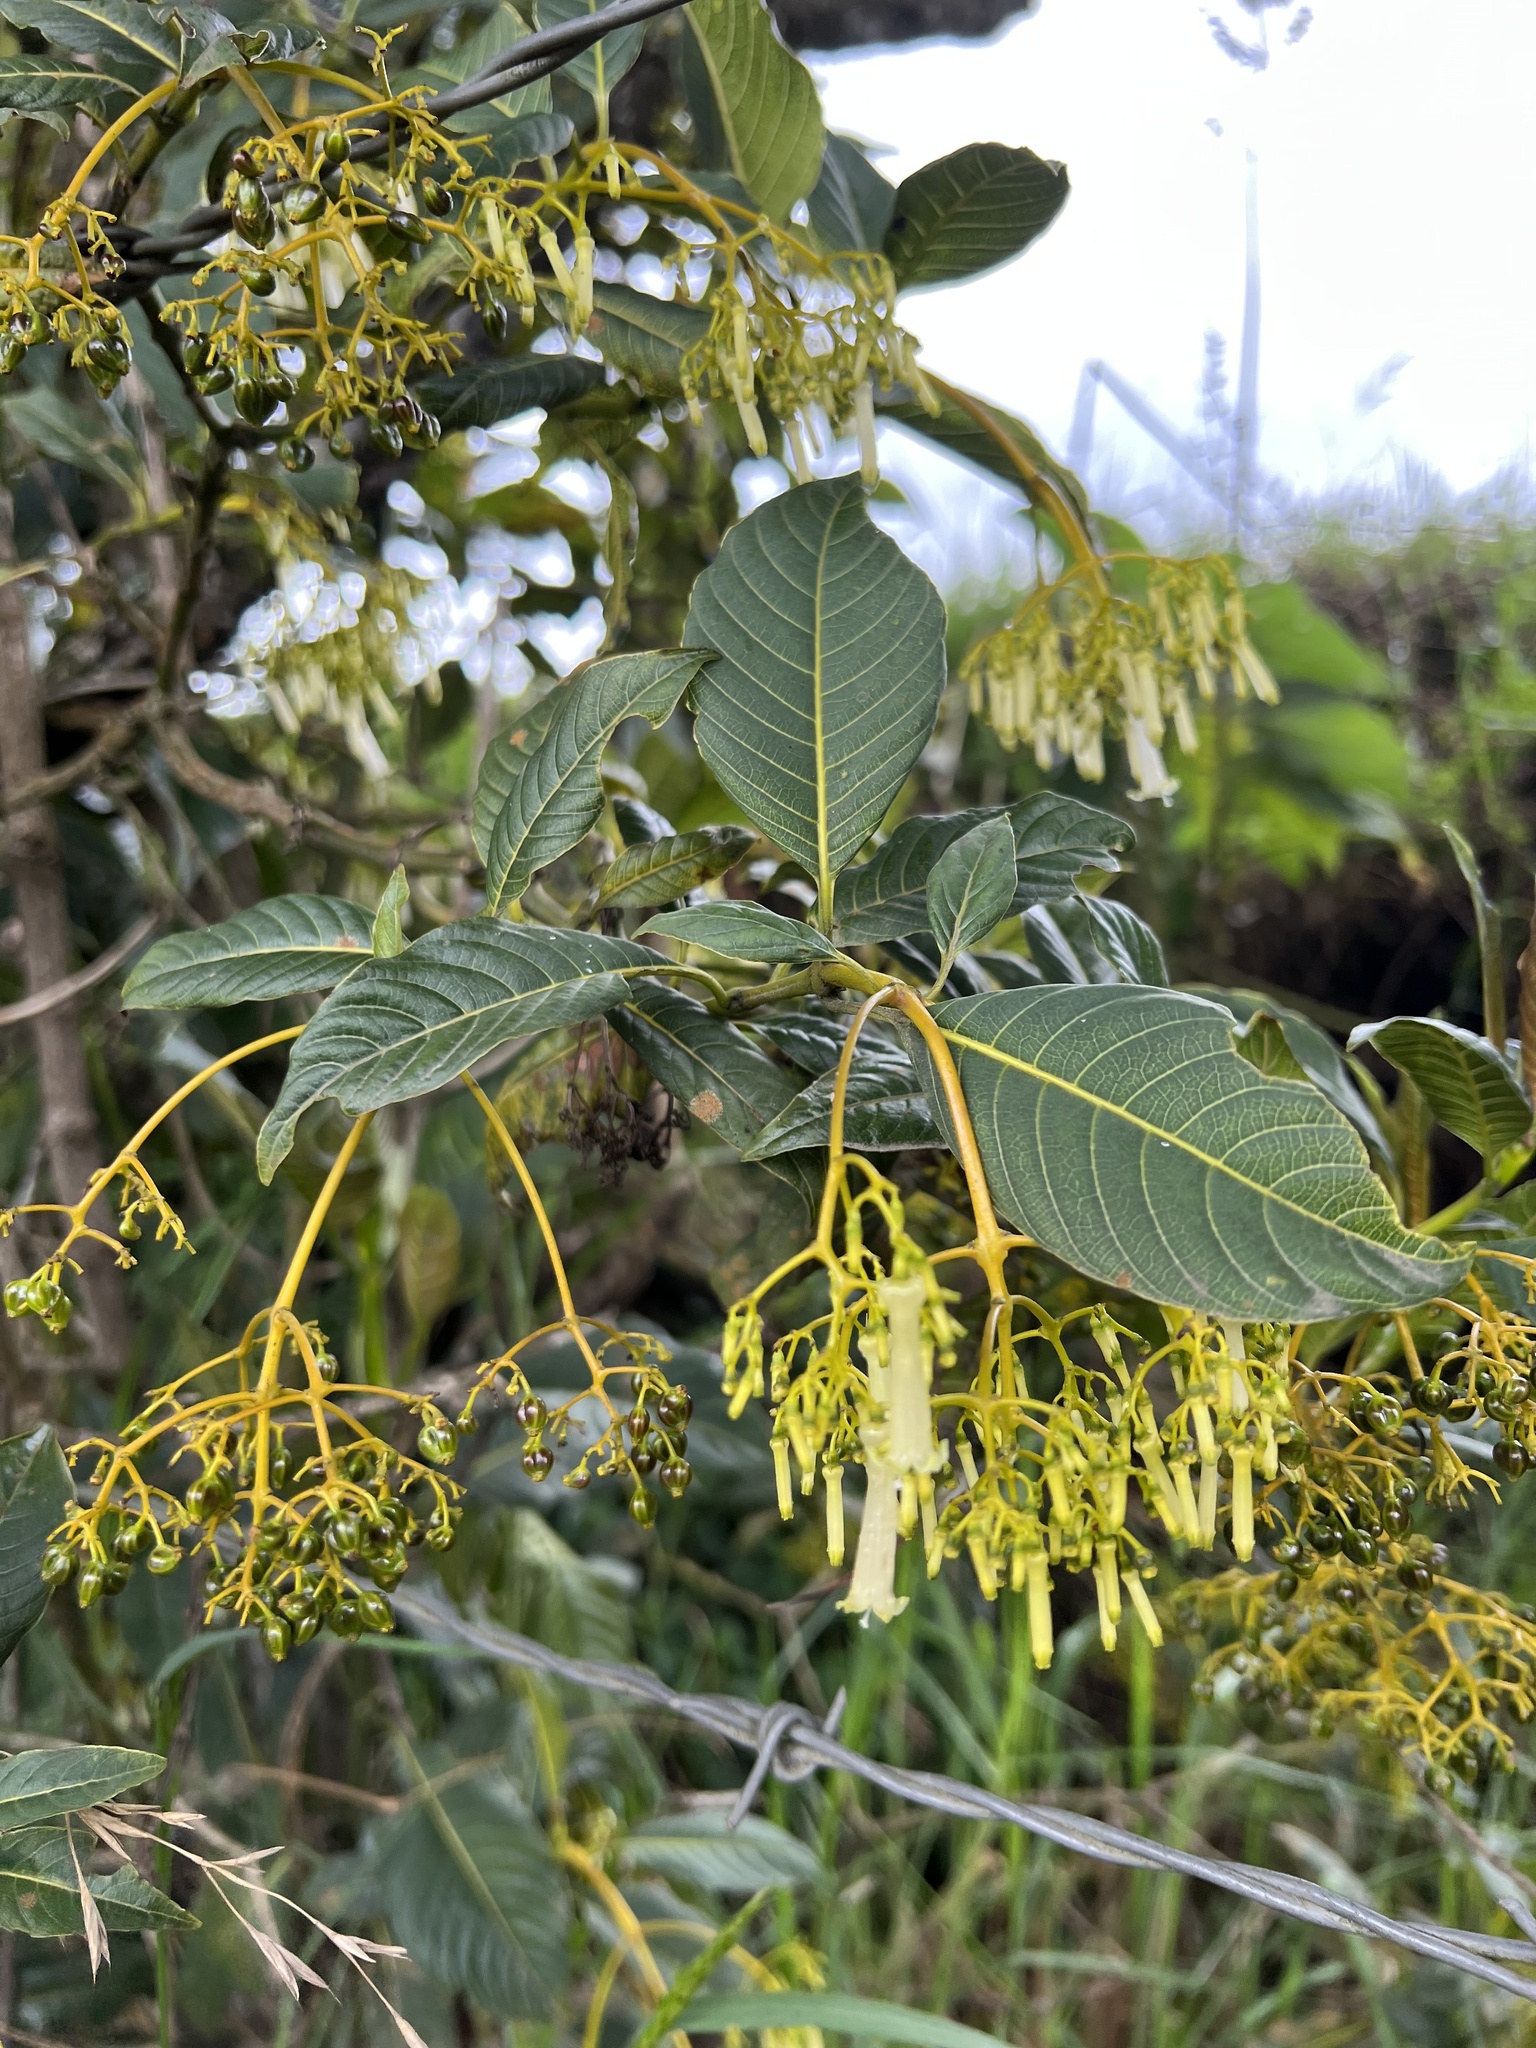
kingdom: Plantae
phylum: Tracheophyta
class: Magnoliopsida
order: Gentianales
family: Rubiaceae
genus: Palicourea
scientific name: Palicourea lineariflora
